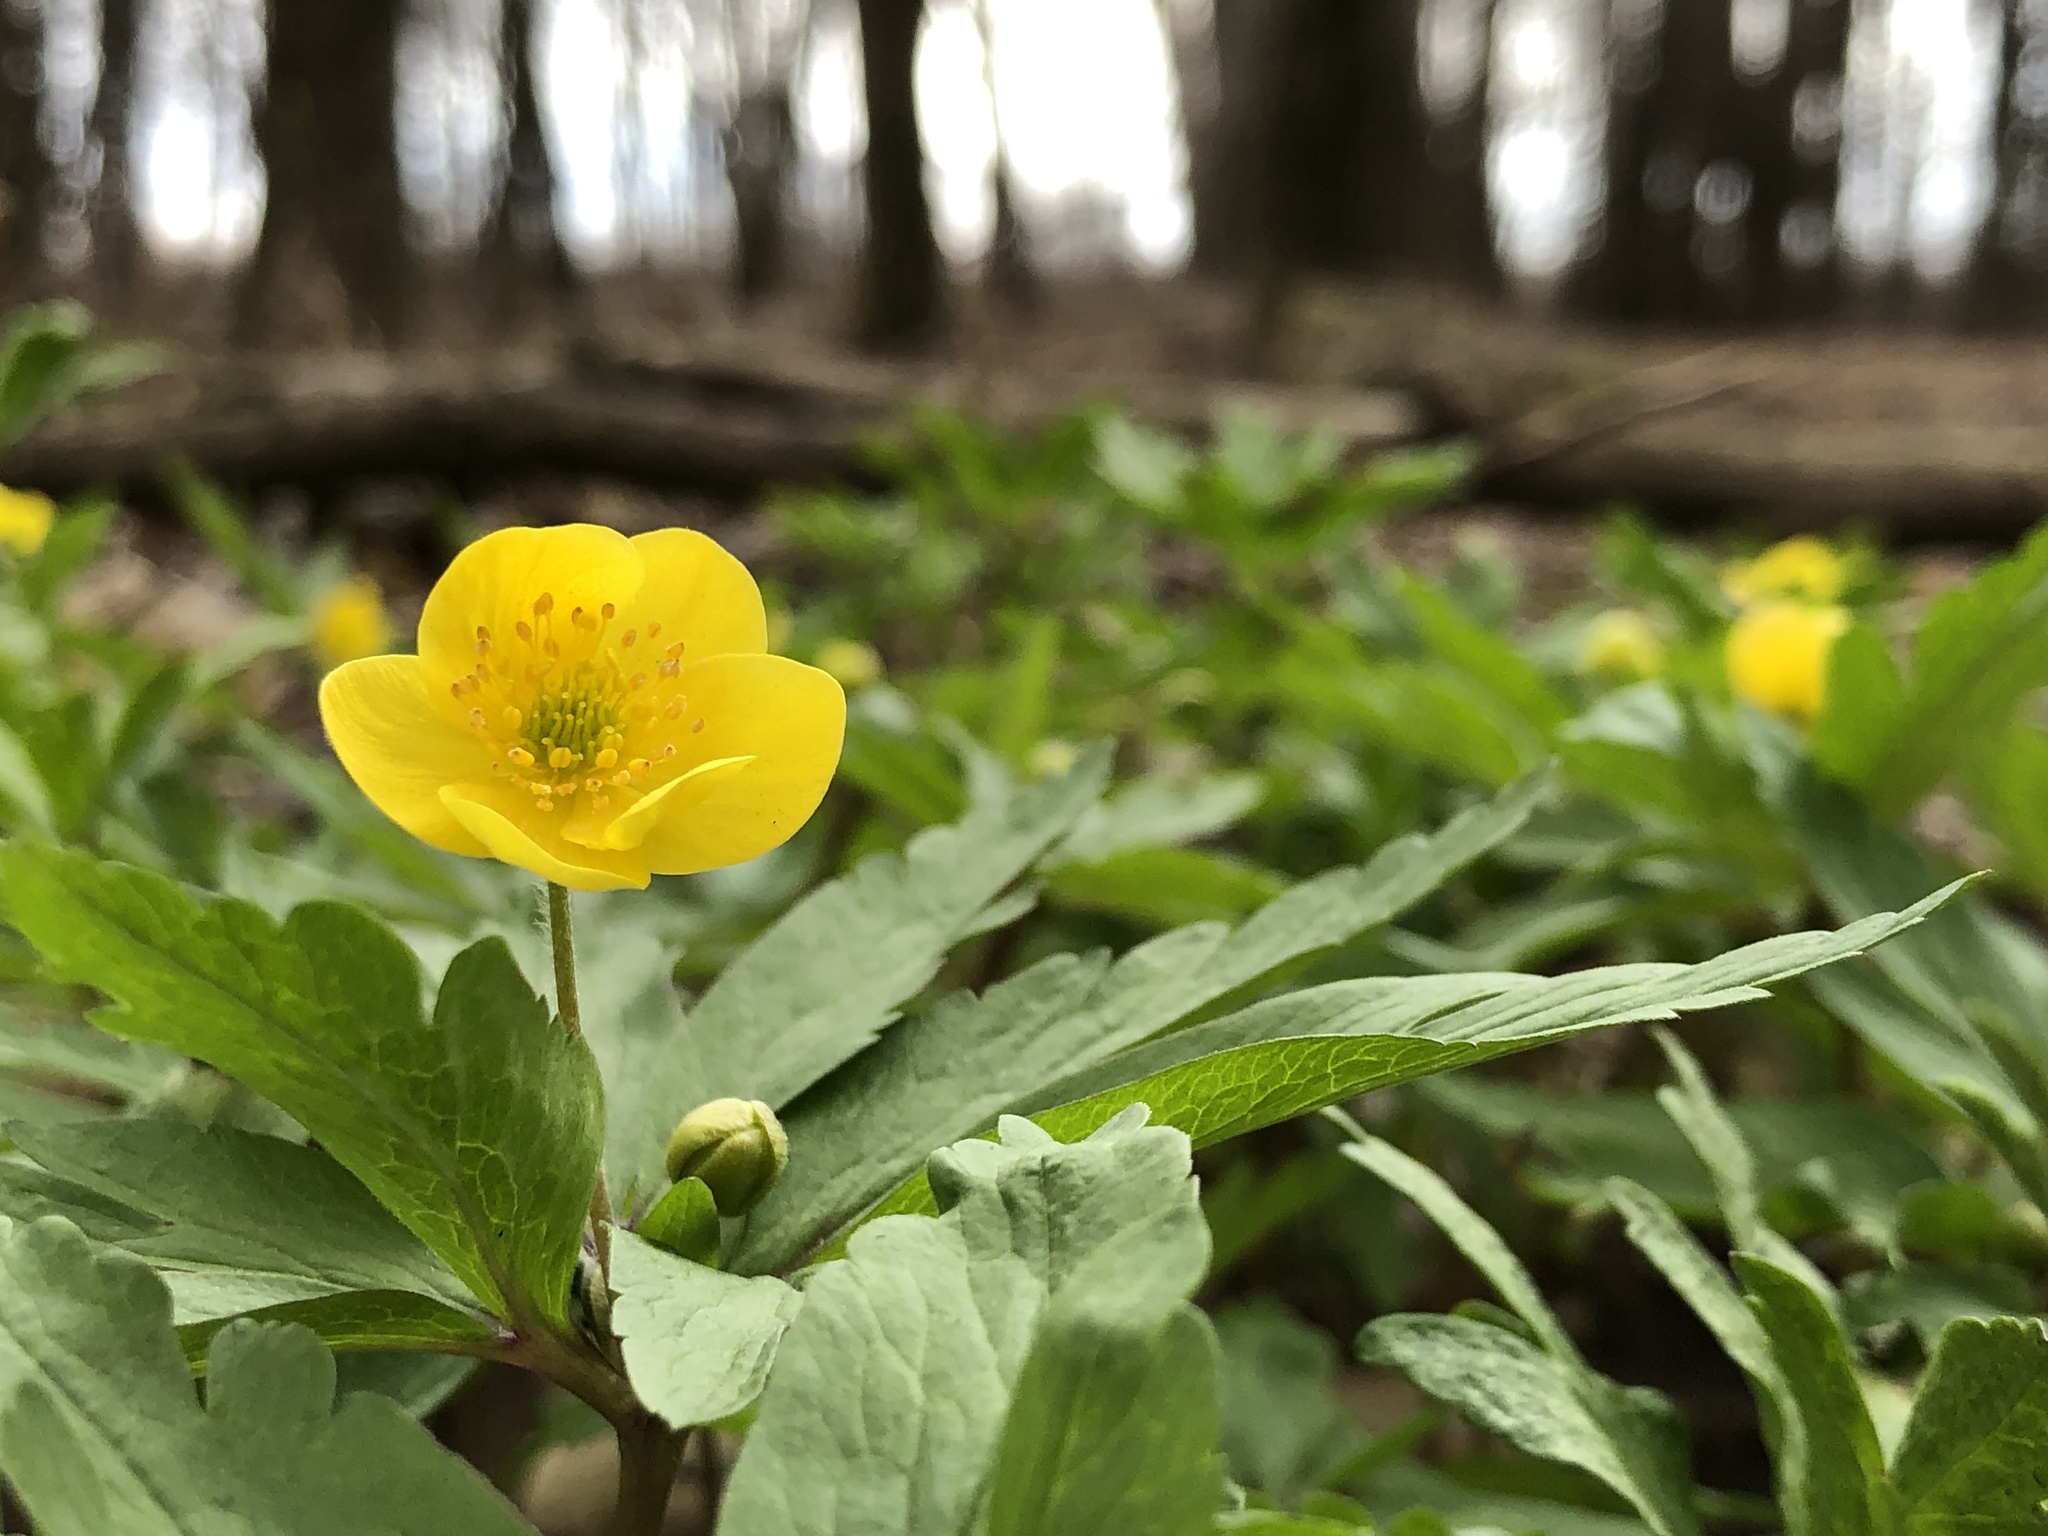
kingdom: Plantae
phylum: Tracheophyta
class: Magnoliopsida
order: Ranunculales
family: Ranunculaceae
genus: Anemone
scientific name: Anemone ranunculoides
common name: Yellow anemone
